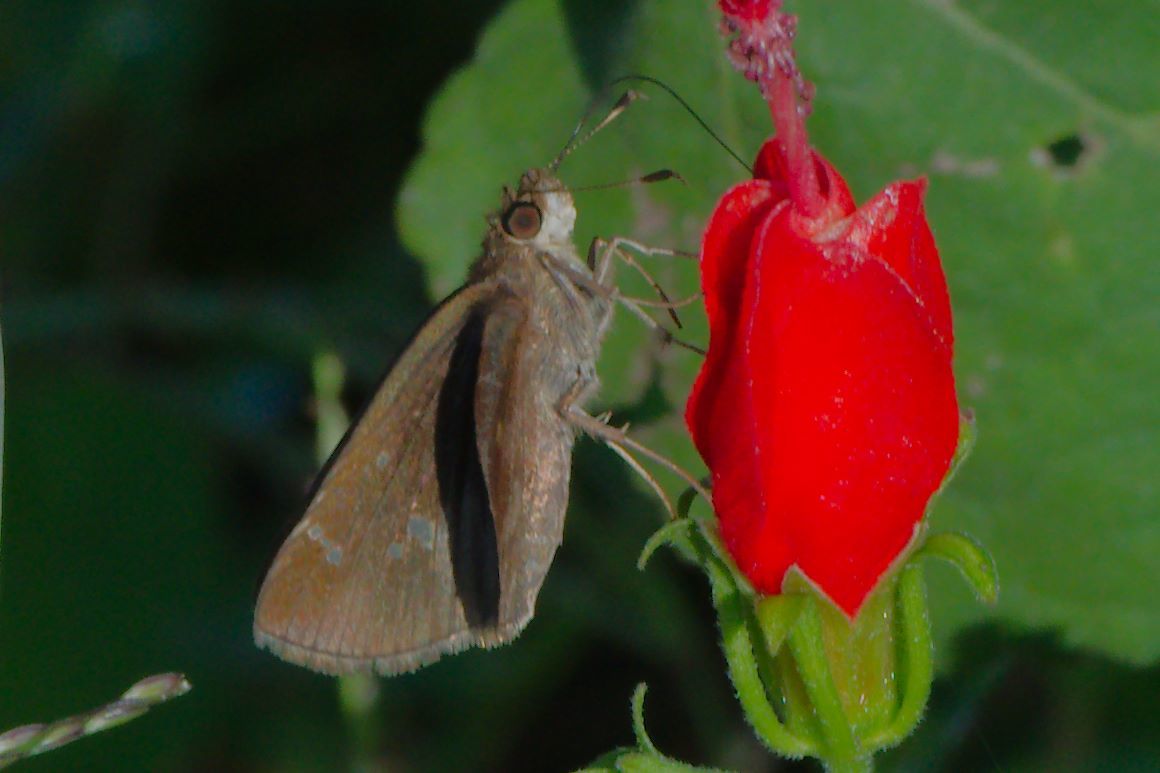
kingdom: Animalia
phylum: Arthropoda
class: Insecta
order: Lepidoptera
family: Hesperiidae
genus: Lerema
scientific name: Lerema accius
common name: Clouded skipper
